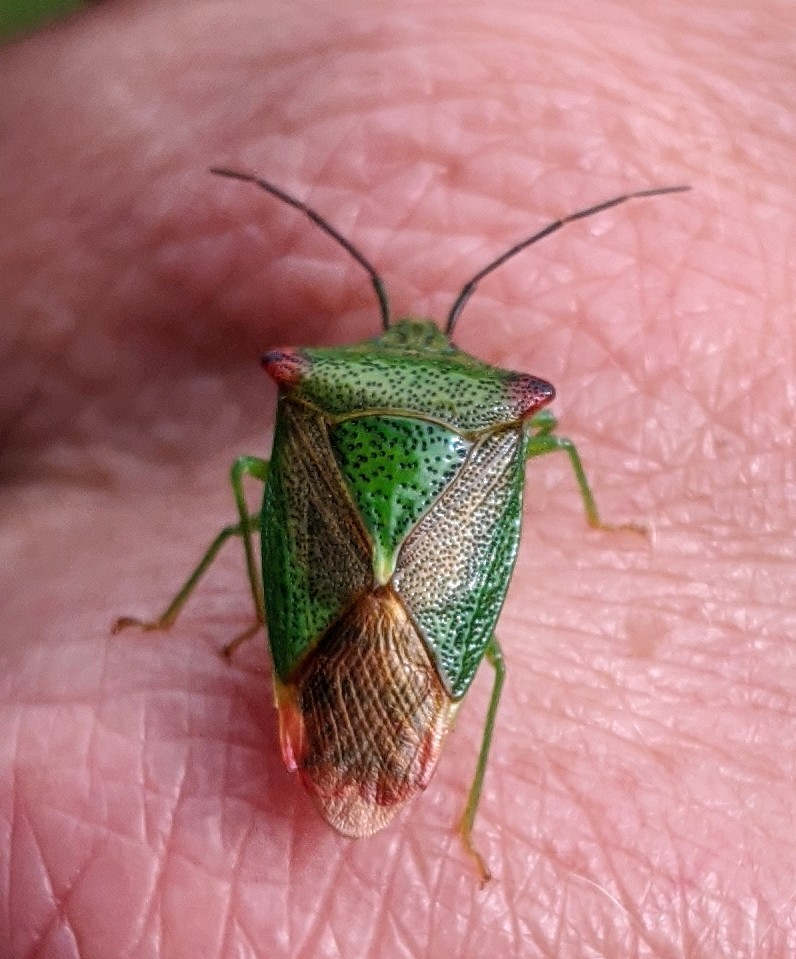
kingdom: Animalia
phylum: Arthropoda
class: Insecta
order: Hemiptera
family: Acanthosomatidae
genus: Acanthosoma
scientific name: Acanthosoma haemorrhoidale
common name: Hawthorn shieldbug
